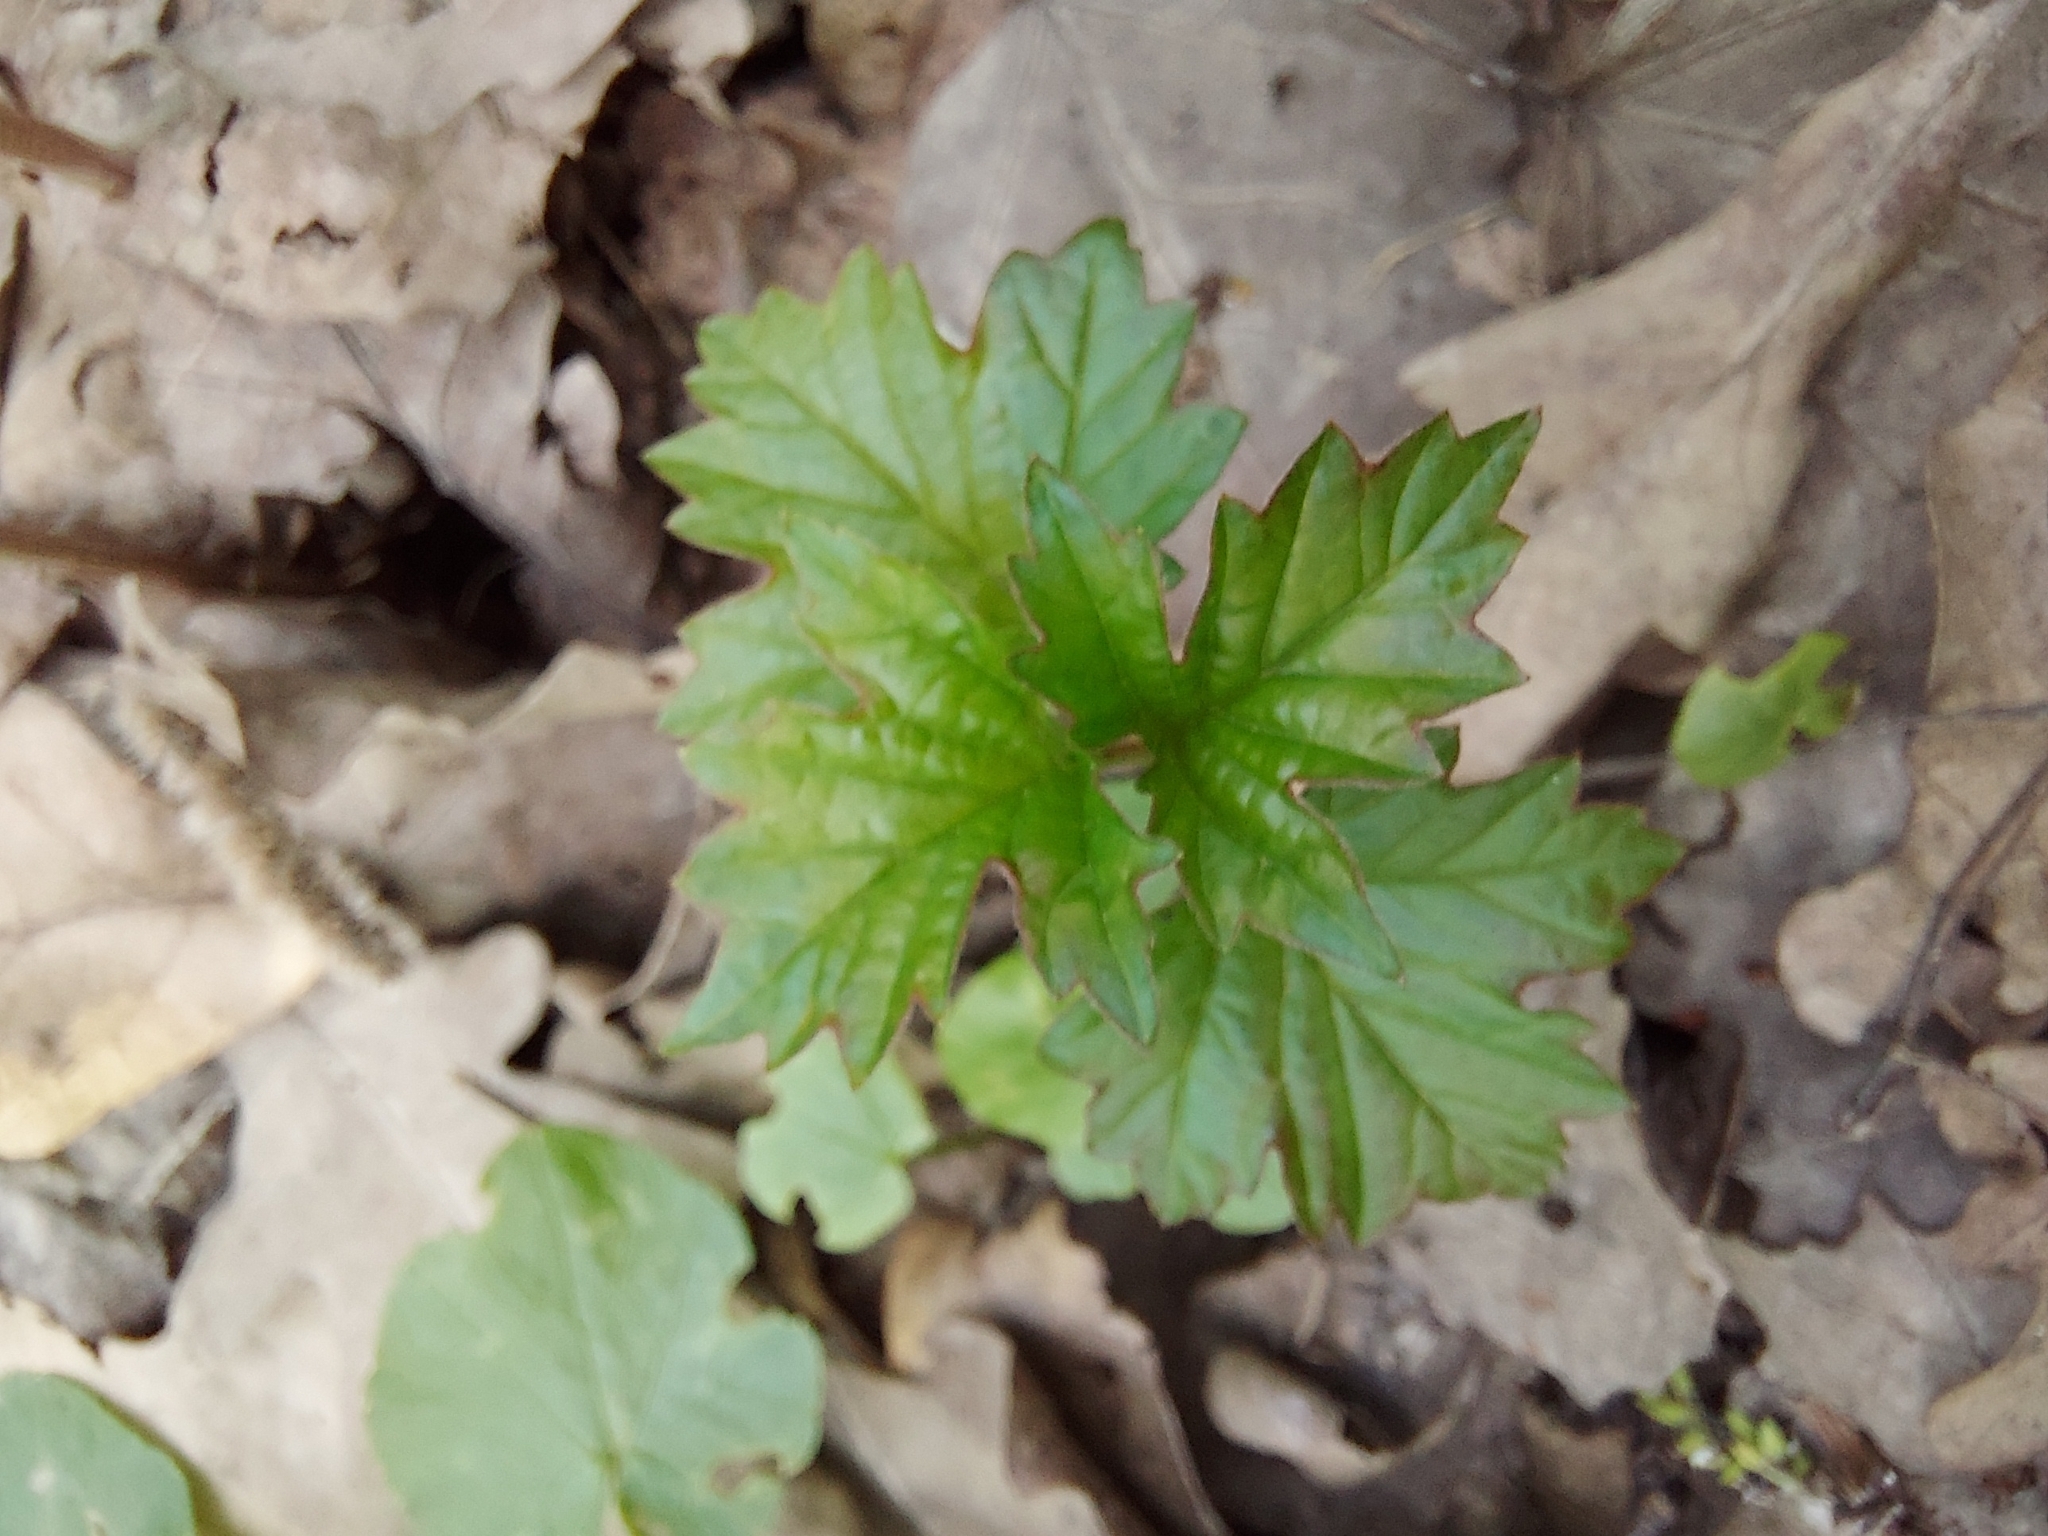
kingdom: Plantae
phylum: Tracheophyta
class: Magnoliopsida
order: Dipsacales
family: Viburnaceae
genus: Viburnum
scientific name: Viburnum opulus
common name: Guelder-rose
